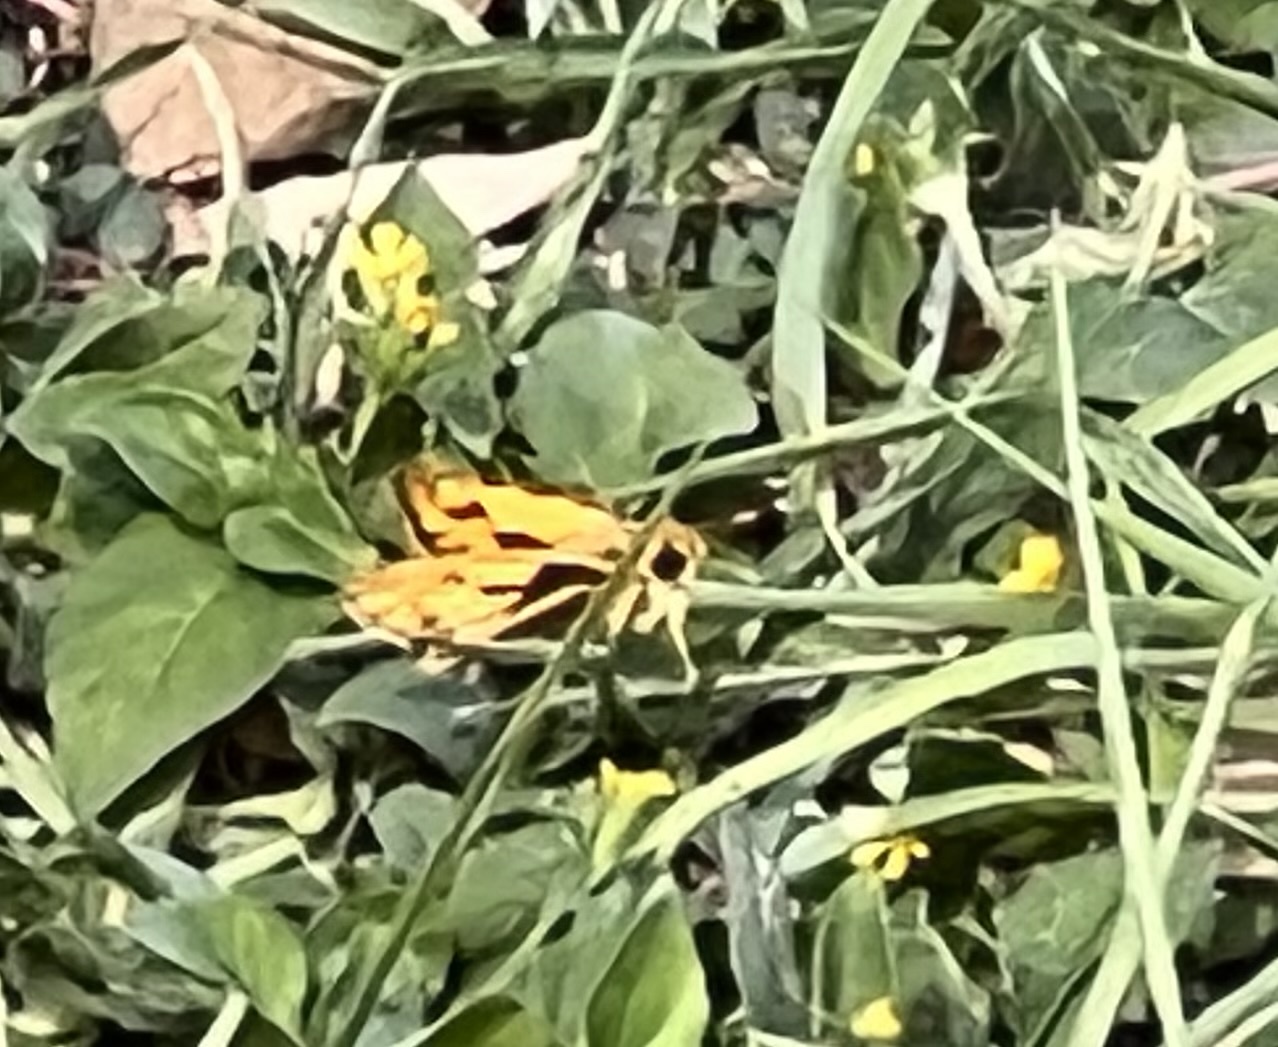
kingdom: Animalia
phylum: Arthropoda
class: Insecta
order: Lepidoptera
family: Hesperiidae
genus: Hylephila
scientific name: Hylephila phyleus
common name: Fiery skipper
